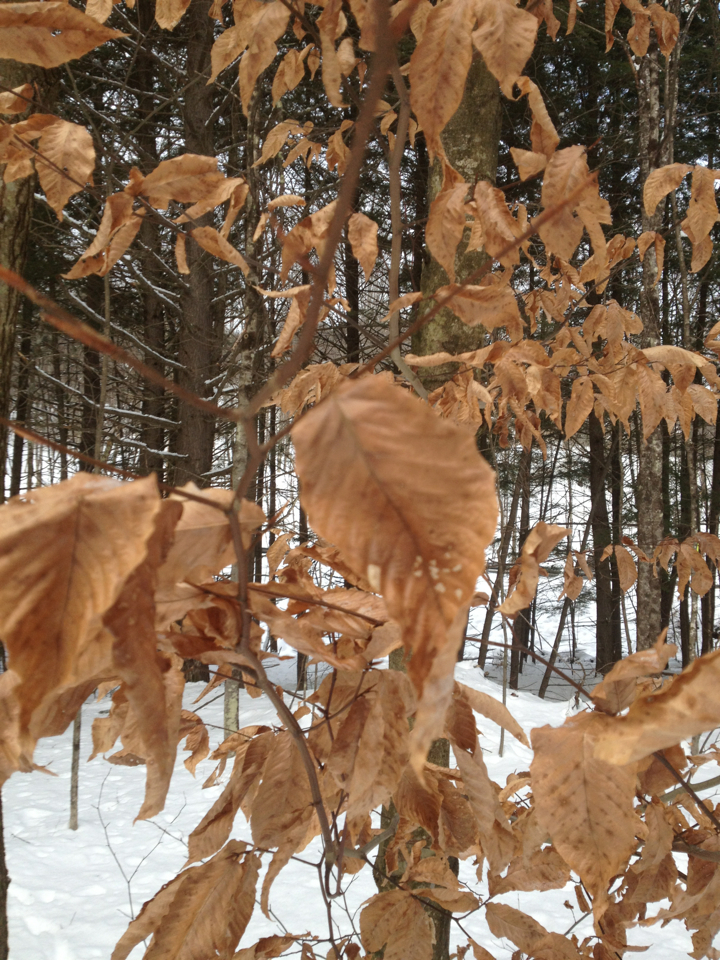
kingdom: Plantae
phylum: Tracheophyta
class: Magnoliopsida
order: Fagales
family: Fagaceae
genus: Fagus
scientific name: Fagus grandifolia
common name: American beech
